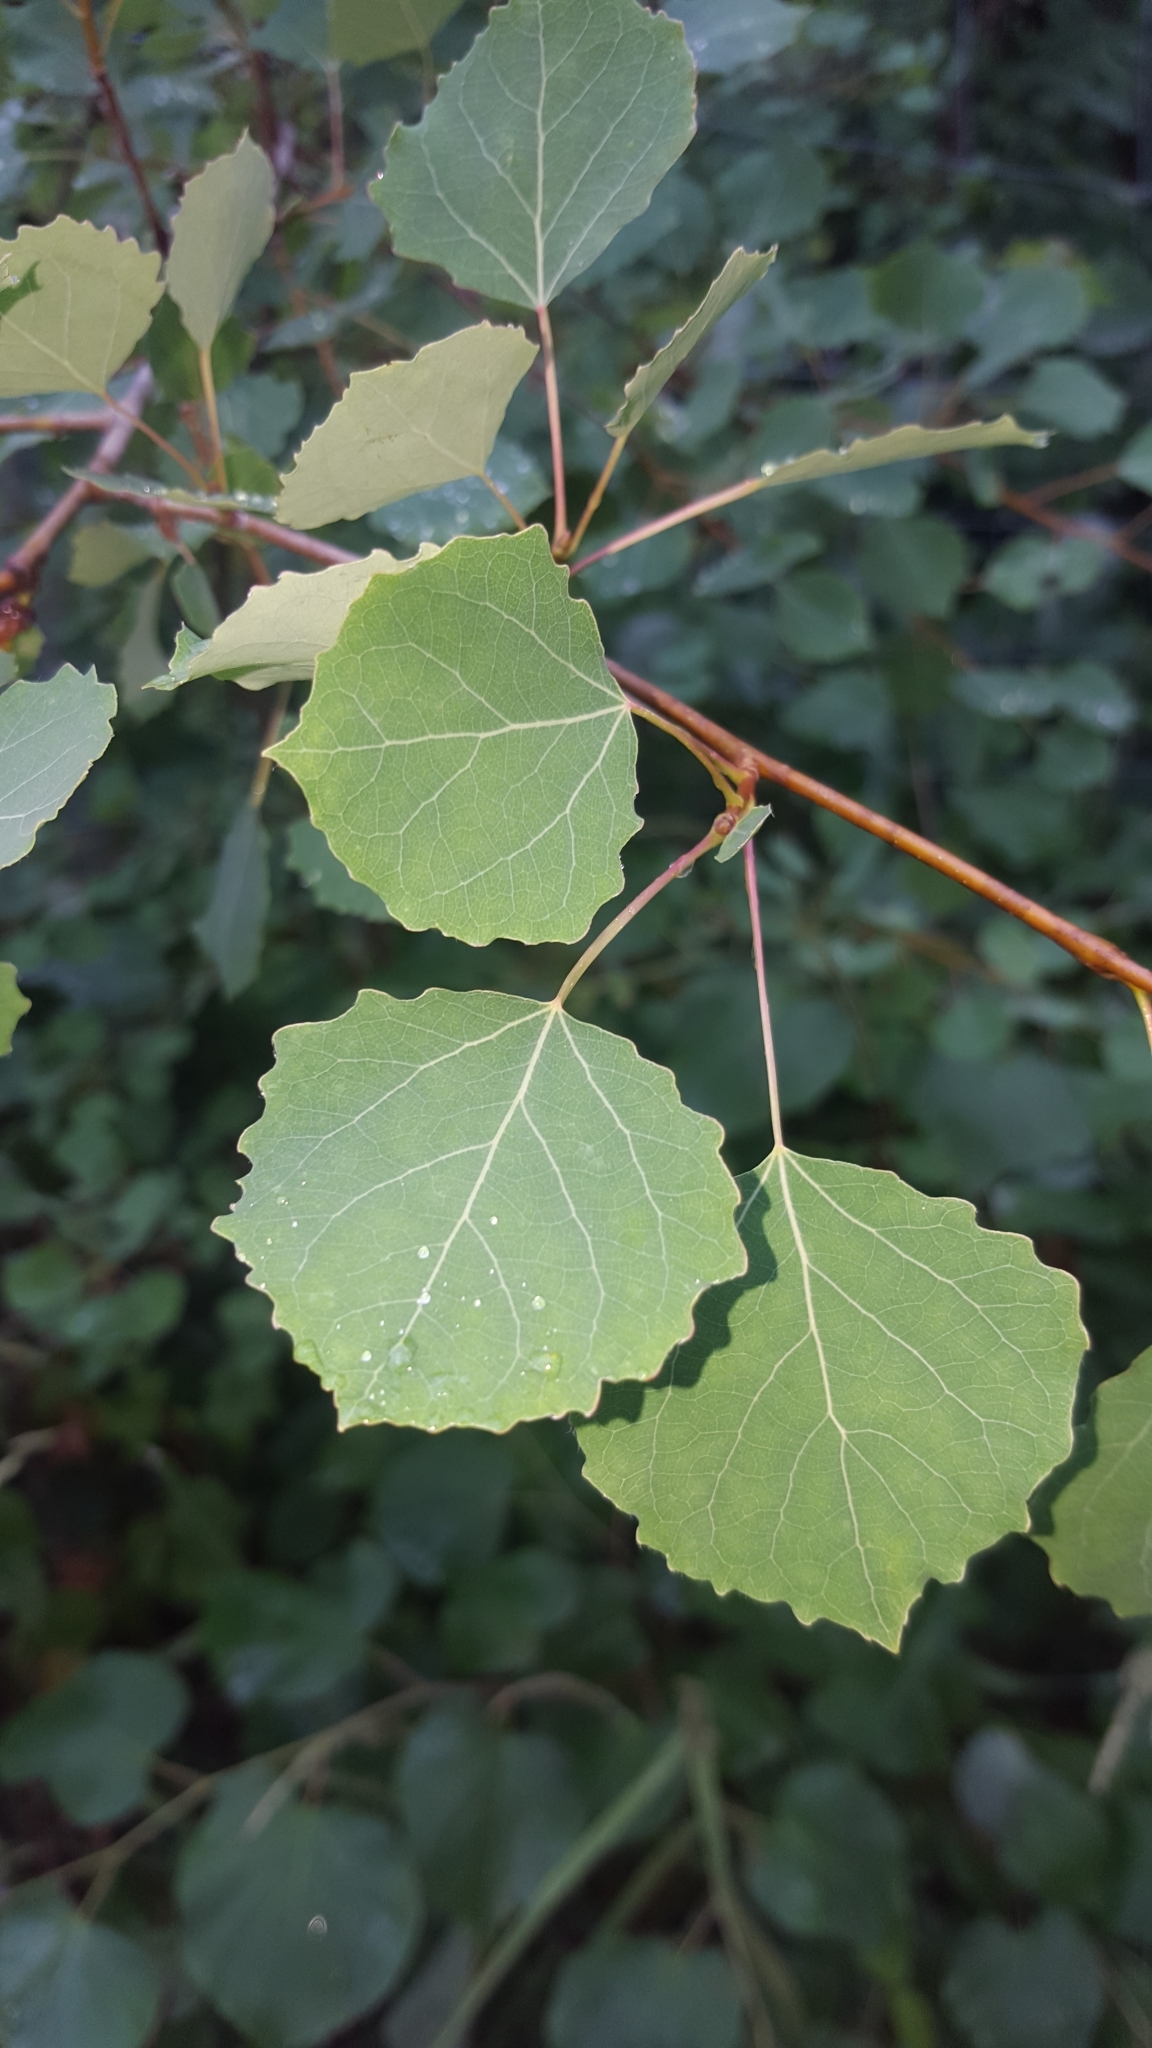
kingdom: Plantae
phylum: Tracheophyta
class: Magnoliopsida
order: Malpighiales
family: Salicaceae
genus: Populus
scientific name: Populus tremula
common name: European aspen
